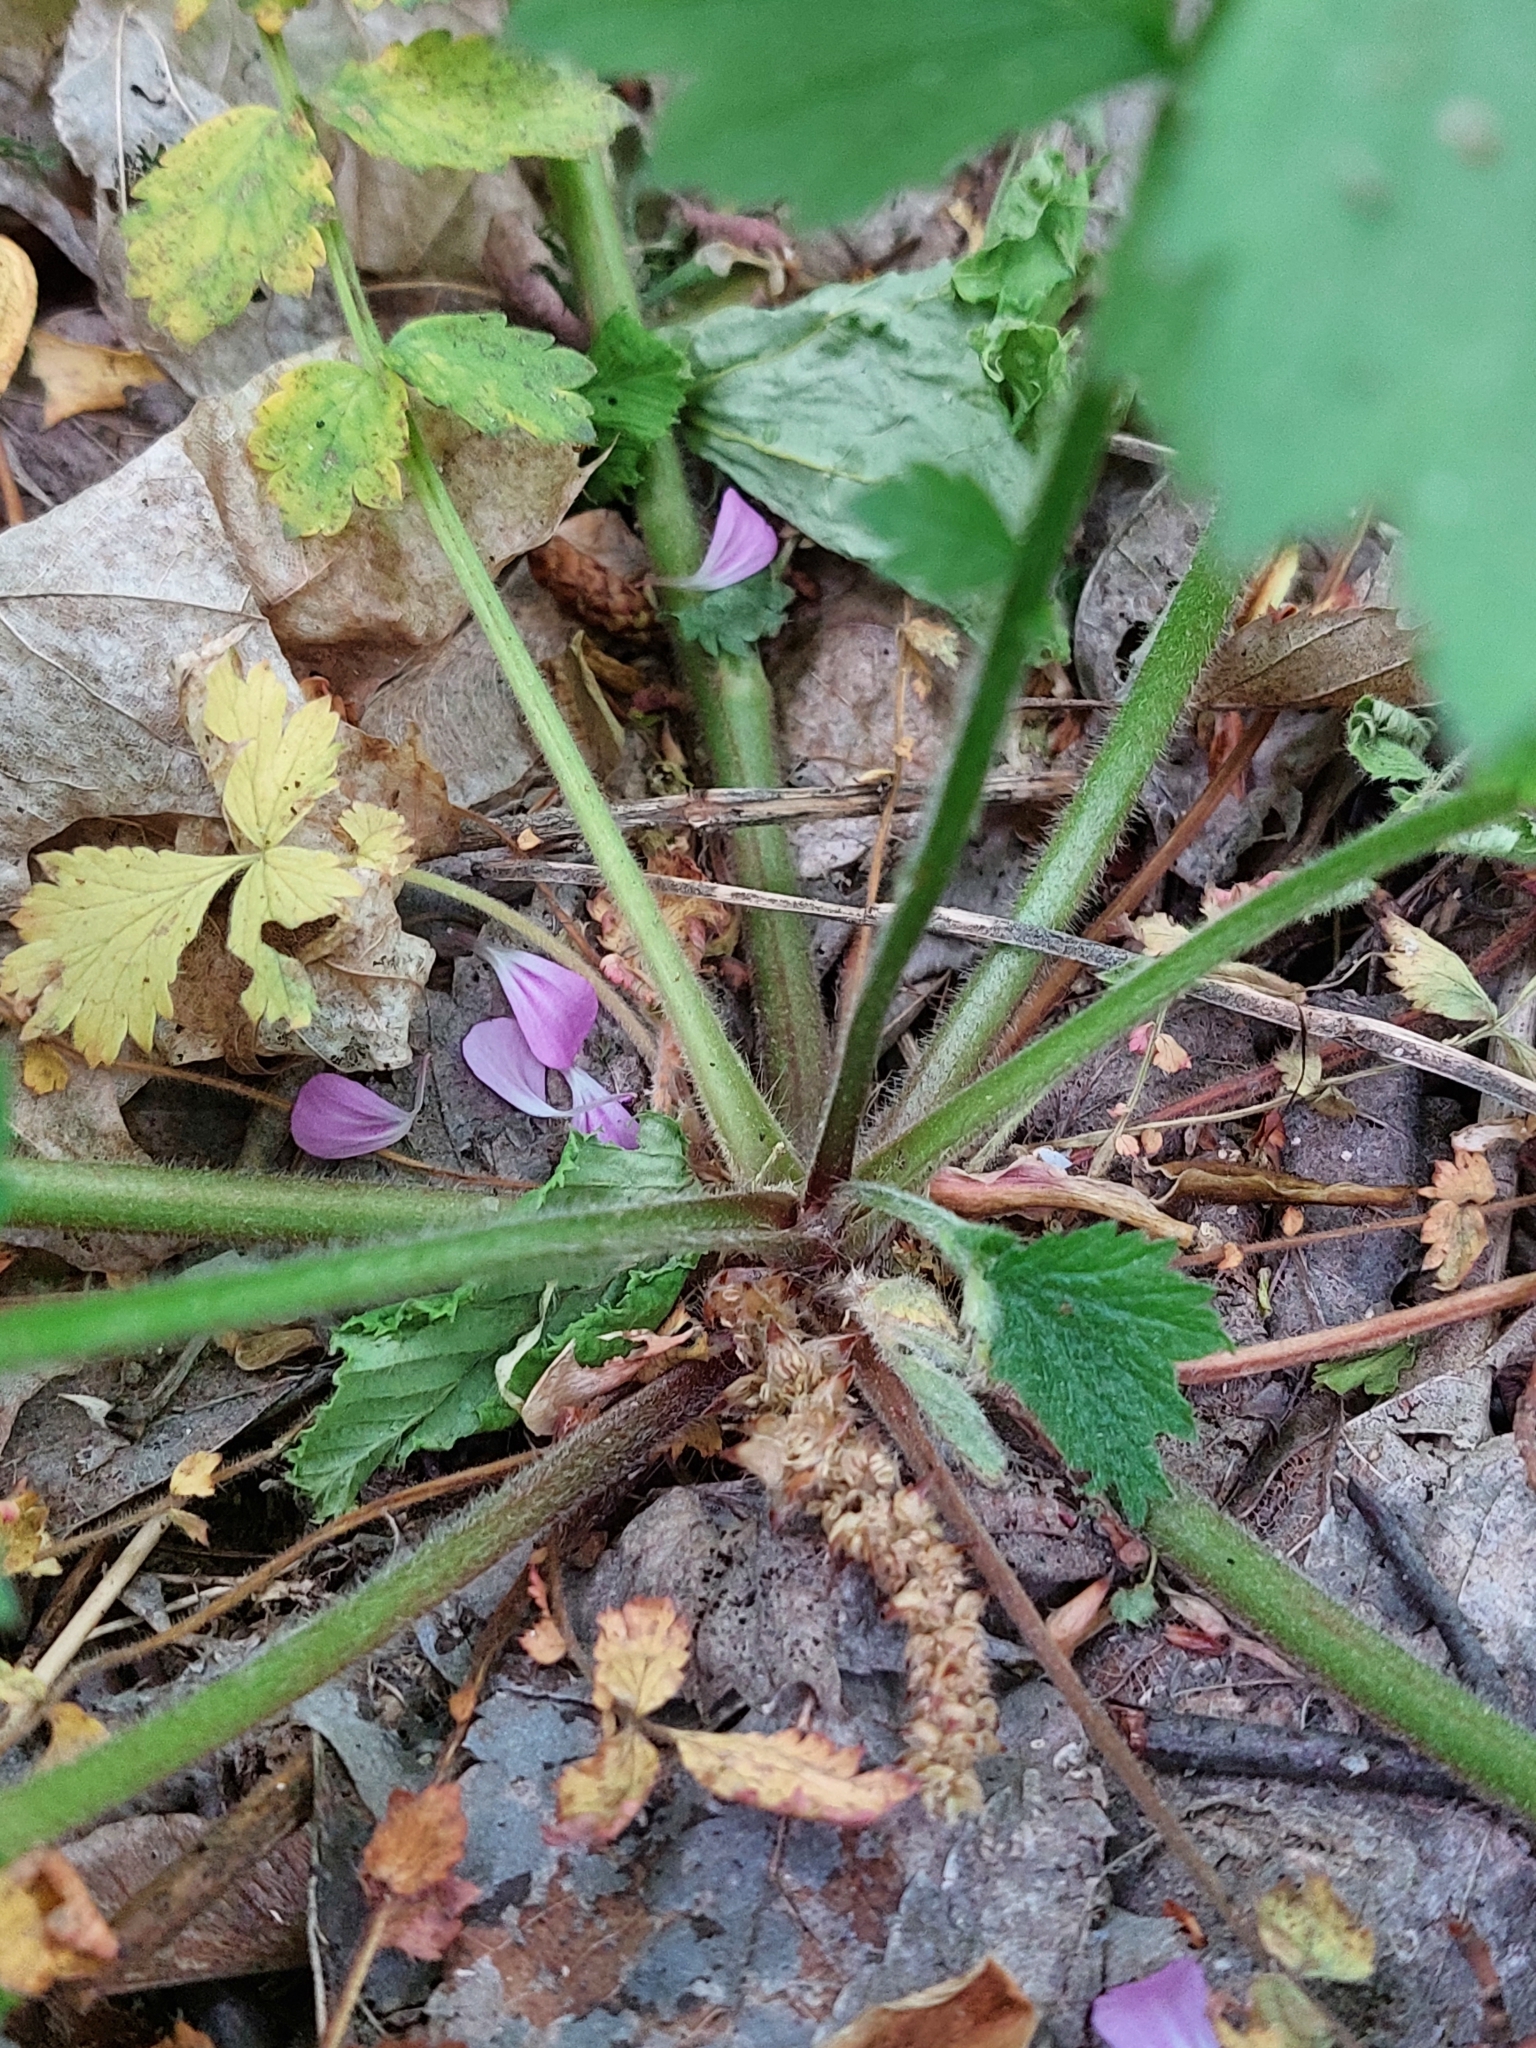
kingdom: Plantae
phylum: Tracheophyta
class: Magnoliopsida
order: Geraniales
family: Geraniaceae
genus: Geranium
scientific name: Geranium robertianum
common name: Herb-robert
